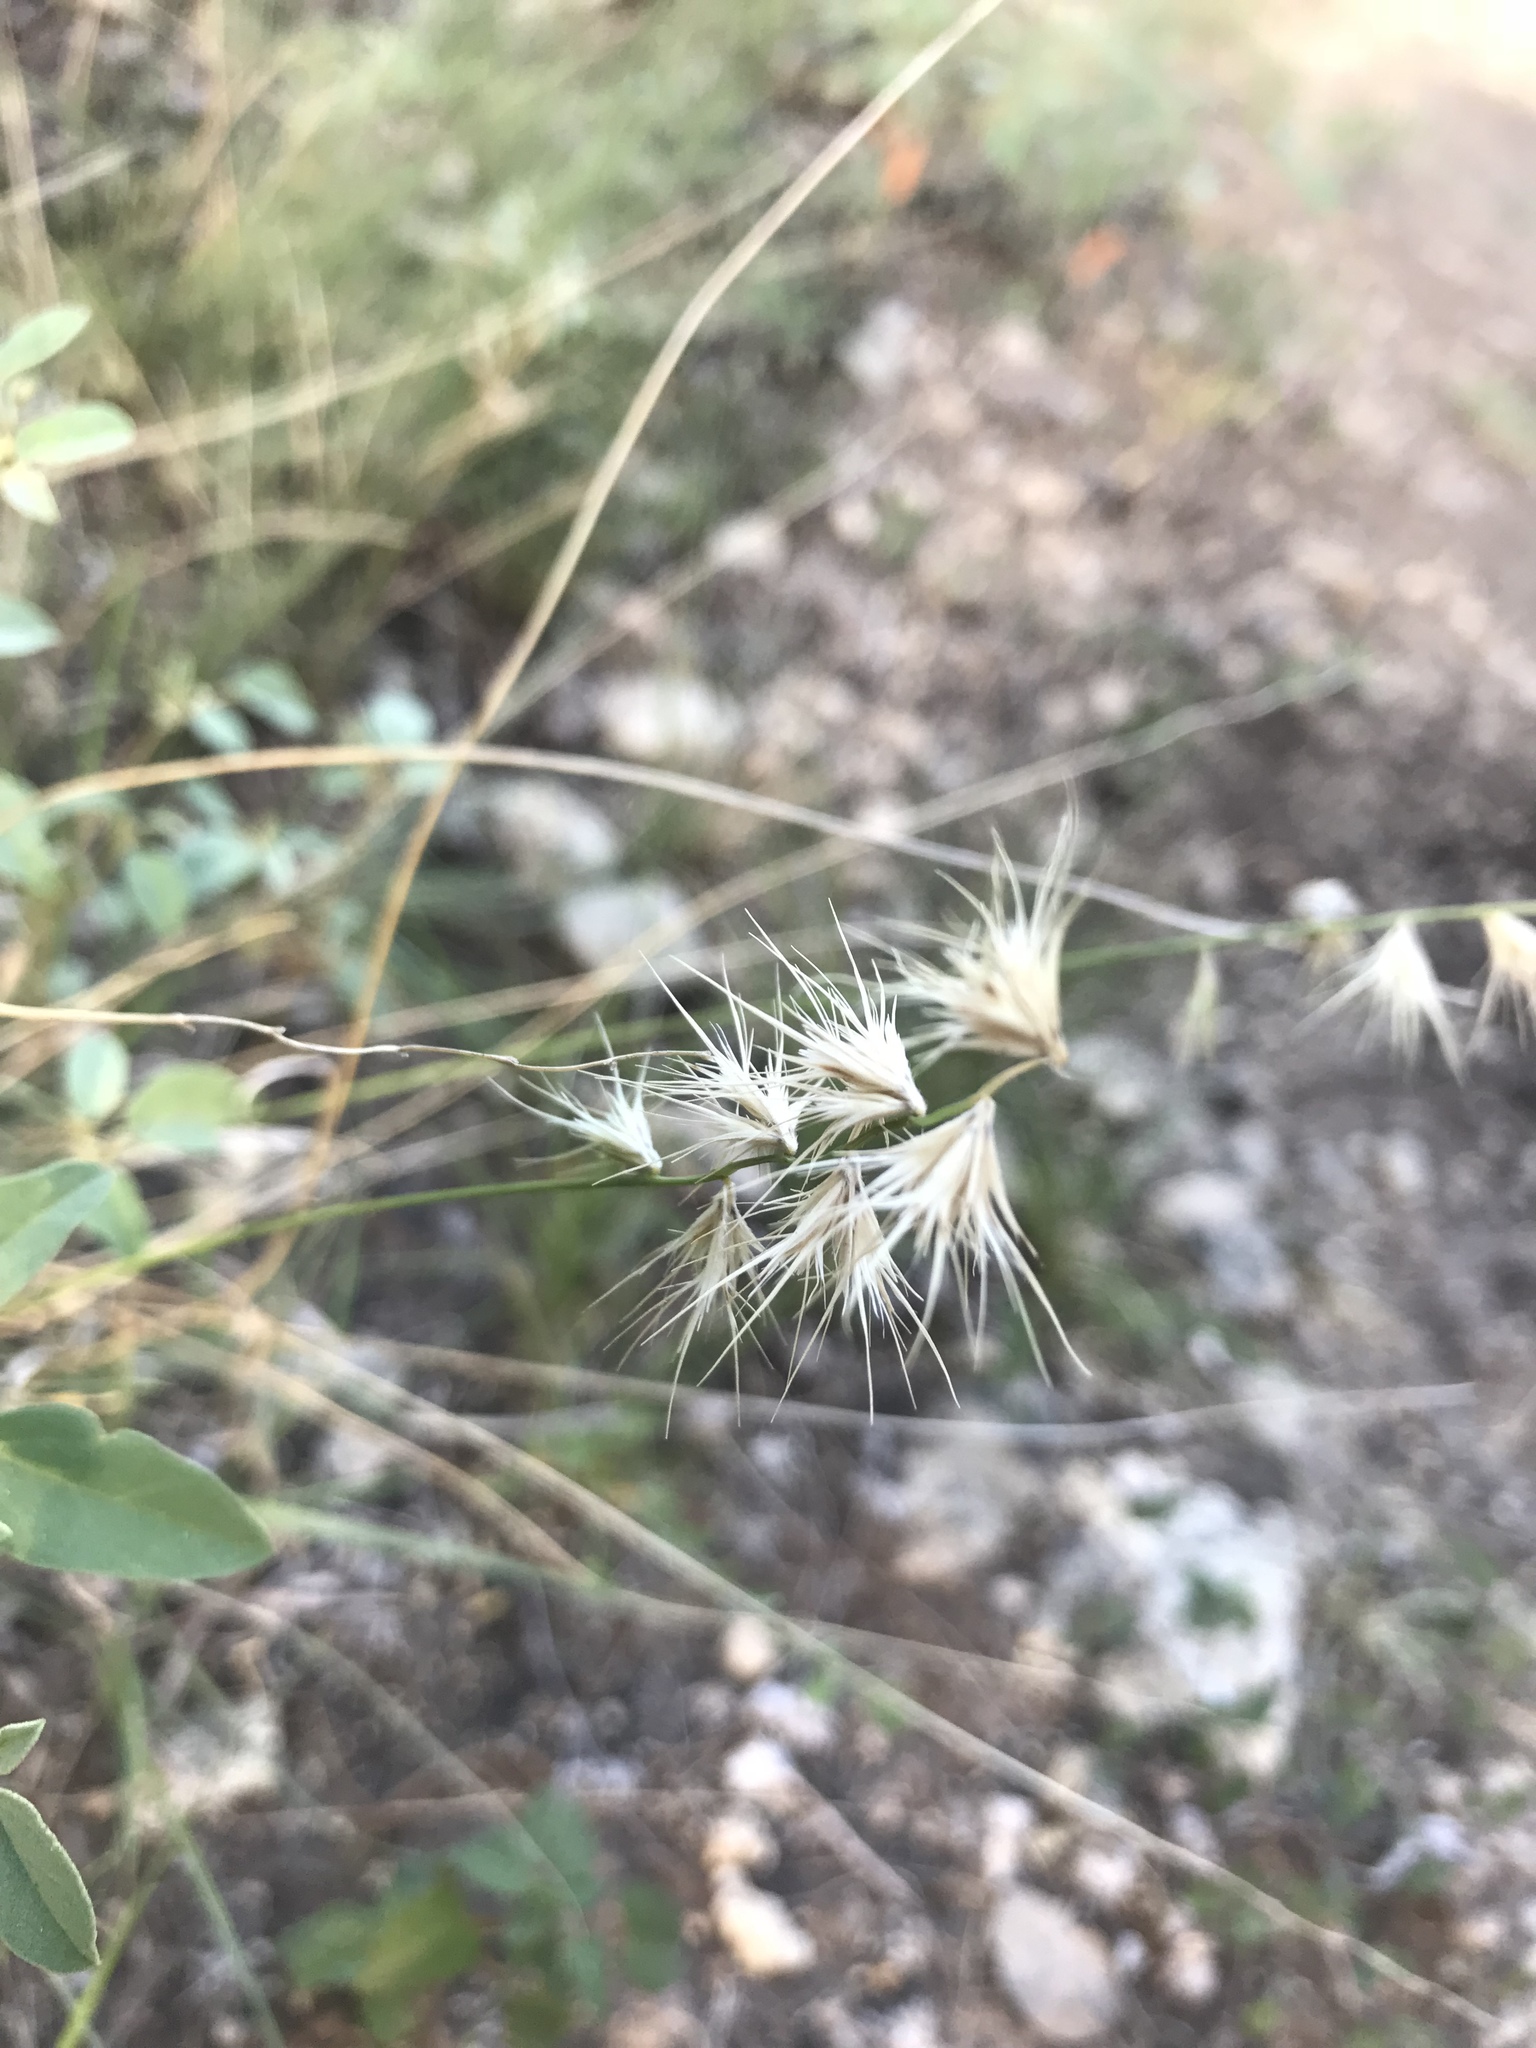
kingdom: Plantae
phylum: Tracheophyta
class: Liliopsida
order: Poales
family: Poaceae
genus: Bouteloua
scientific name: Bouteloua rigidiseta
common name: Texas grama
